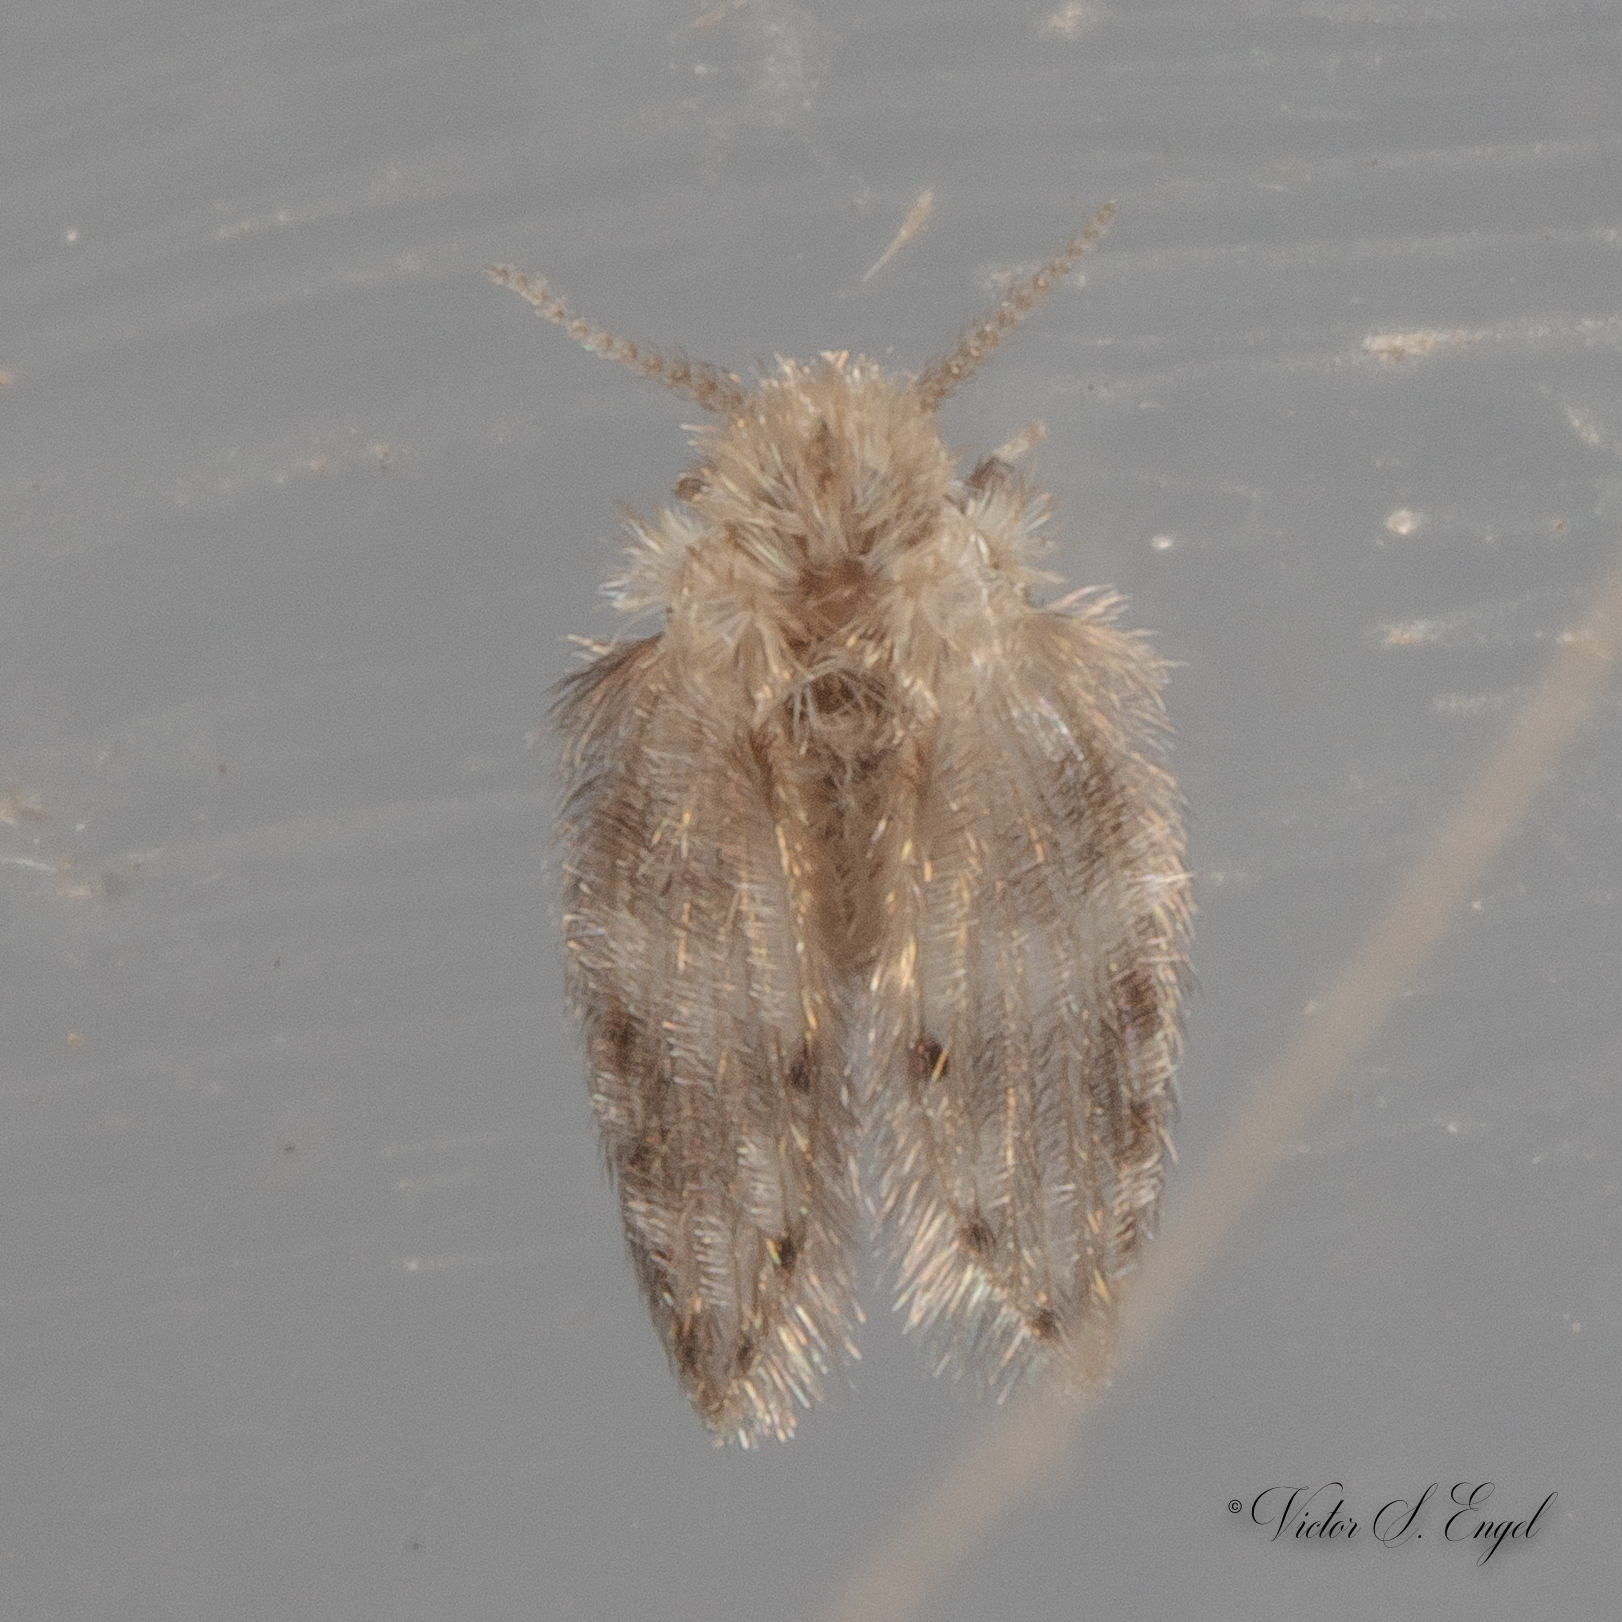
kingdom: Animalia
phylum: Arthropoda
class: Insecta
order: Diptera
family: Psychodidae
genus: Psychoda
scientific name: Psychoda alternata
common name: Moth fly
